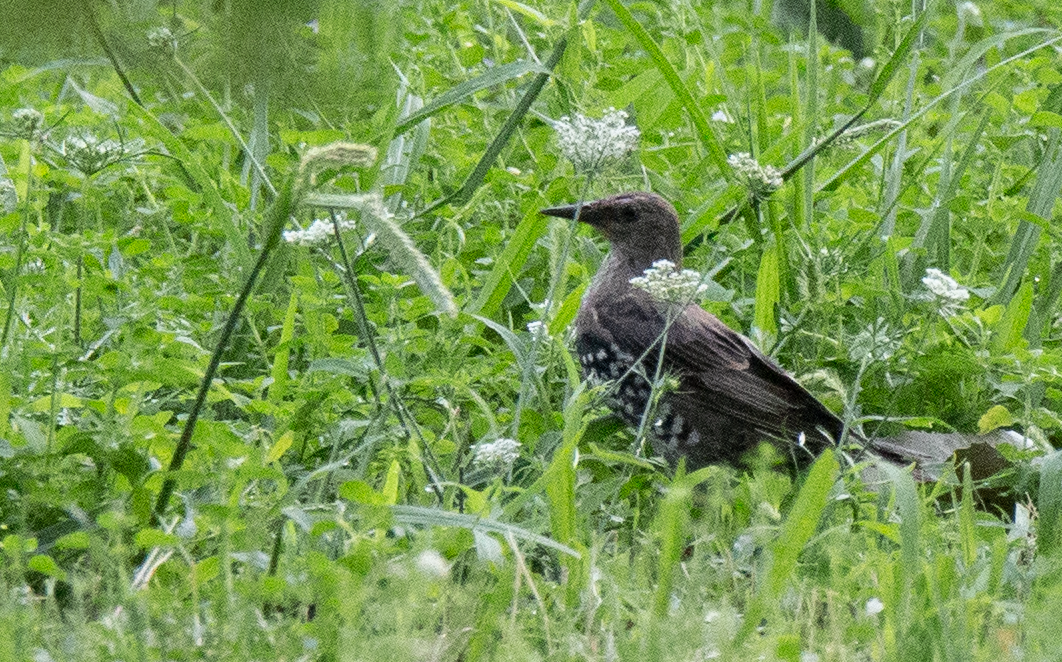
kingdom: Animalia
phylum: Chordata
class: Aves
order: Passeriformes
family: Sturnidae
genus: Sturnus
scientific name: Sturnus vulgaris
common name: Common starling
